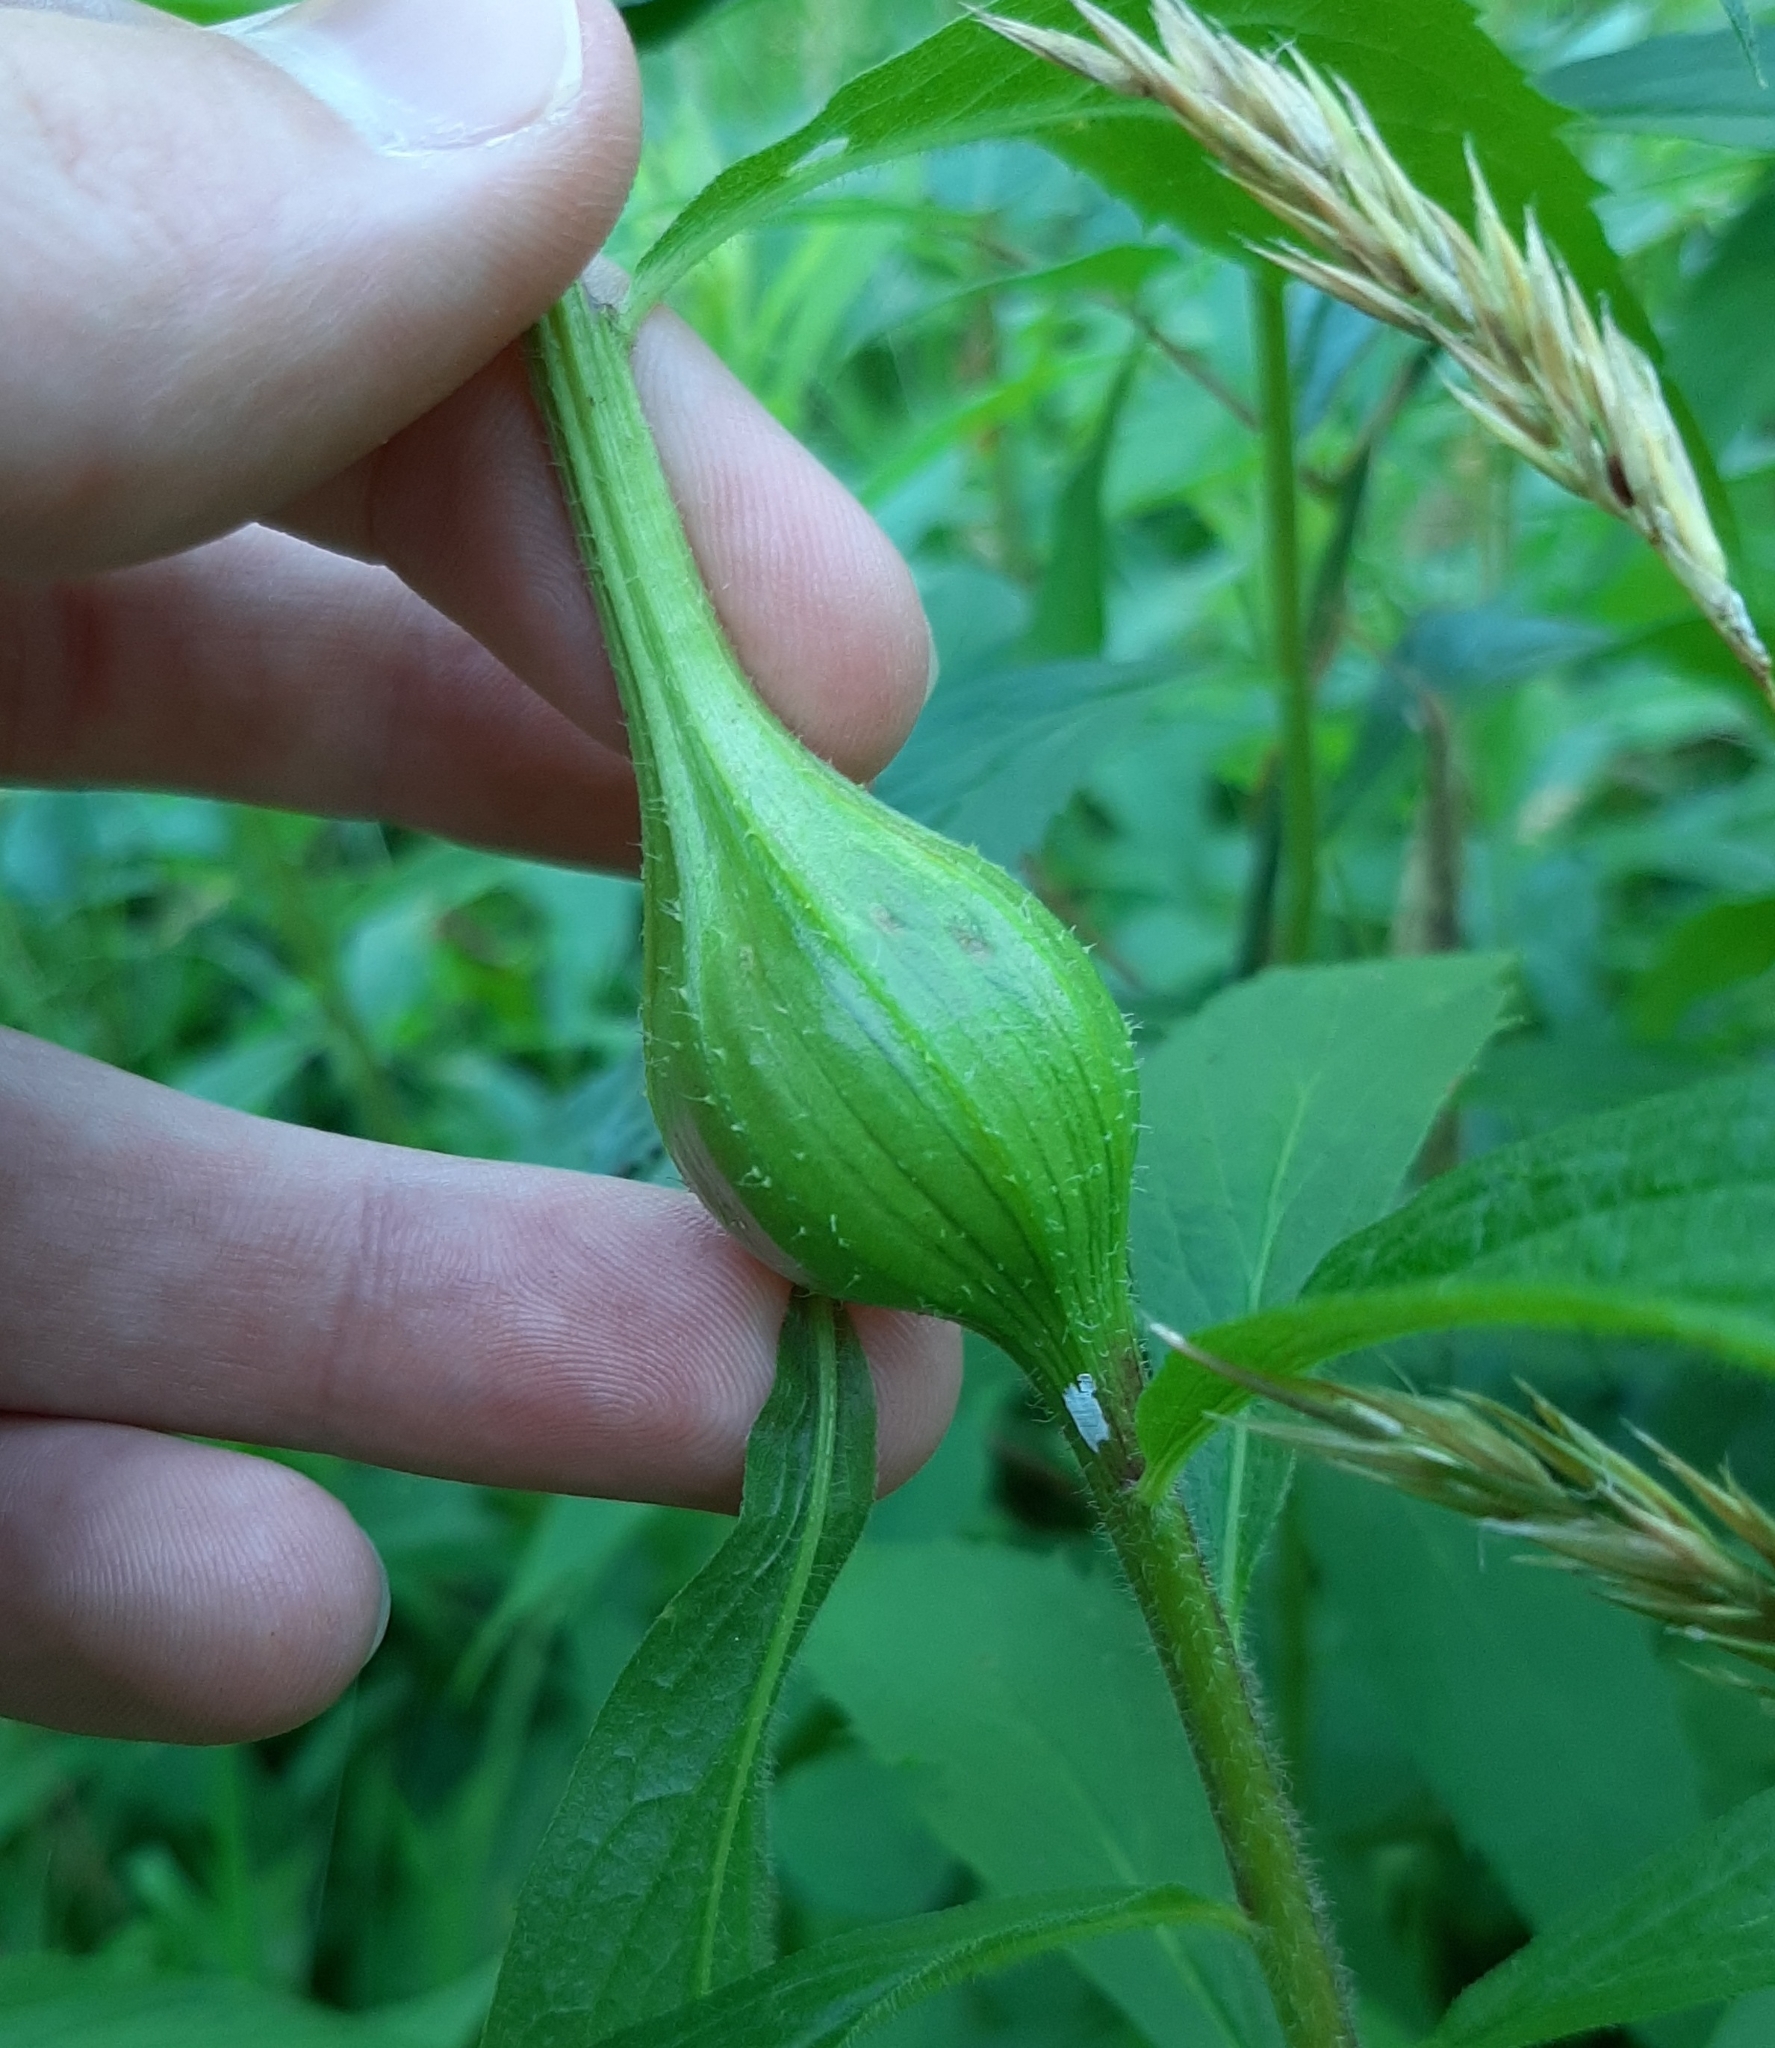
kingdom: Animalia
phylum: Arthropoda
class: Insecta
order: Diptera
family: Tephritidae
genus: Eurosta
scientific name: Eurosta solidaginis
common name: Goldenrod gall fly
